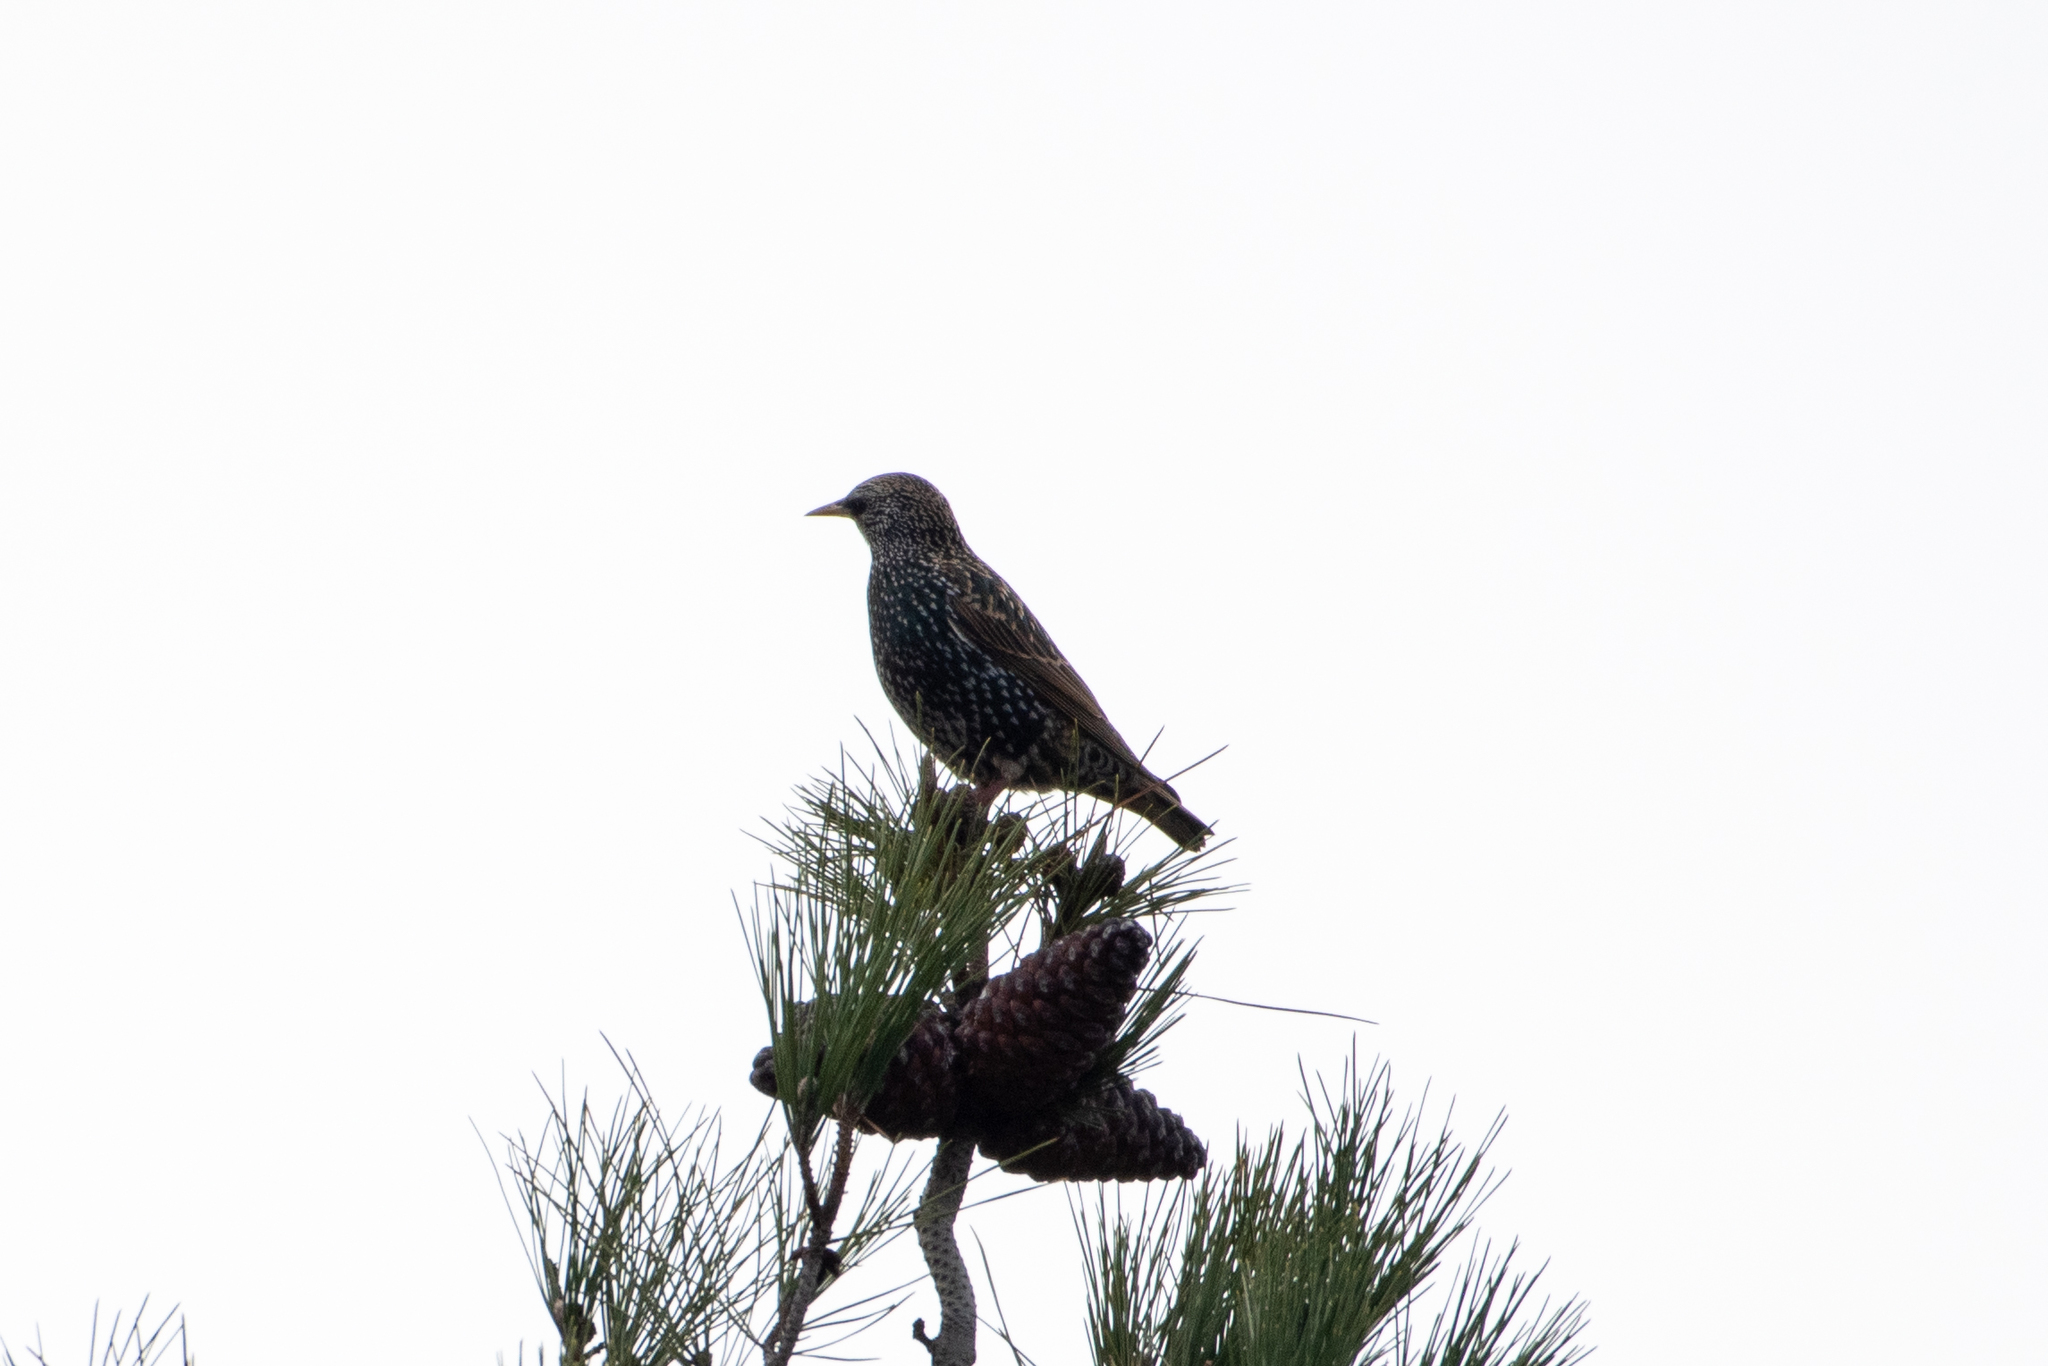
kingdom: Animalia
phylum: Chordata
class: Aves
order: Passeriformes
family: Sturnidae
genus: Sturnus
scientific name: Sturnus vulgaris
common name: Common starling
